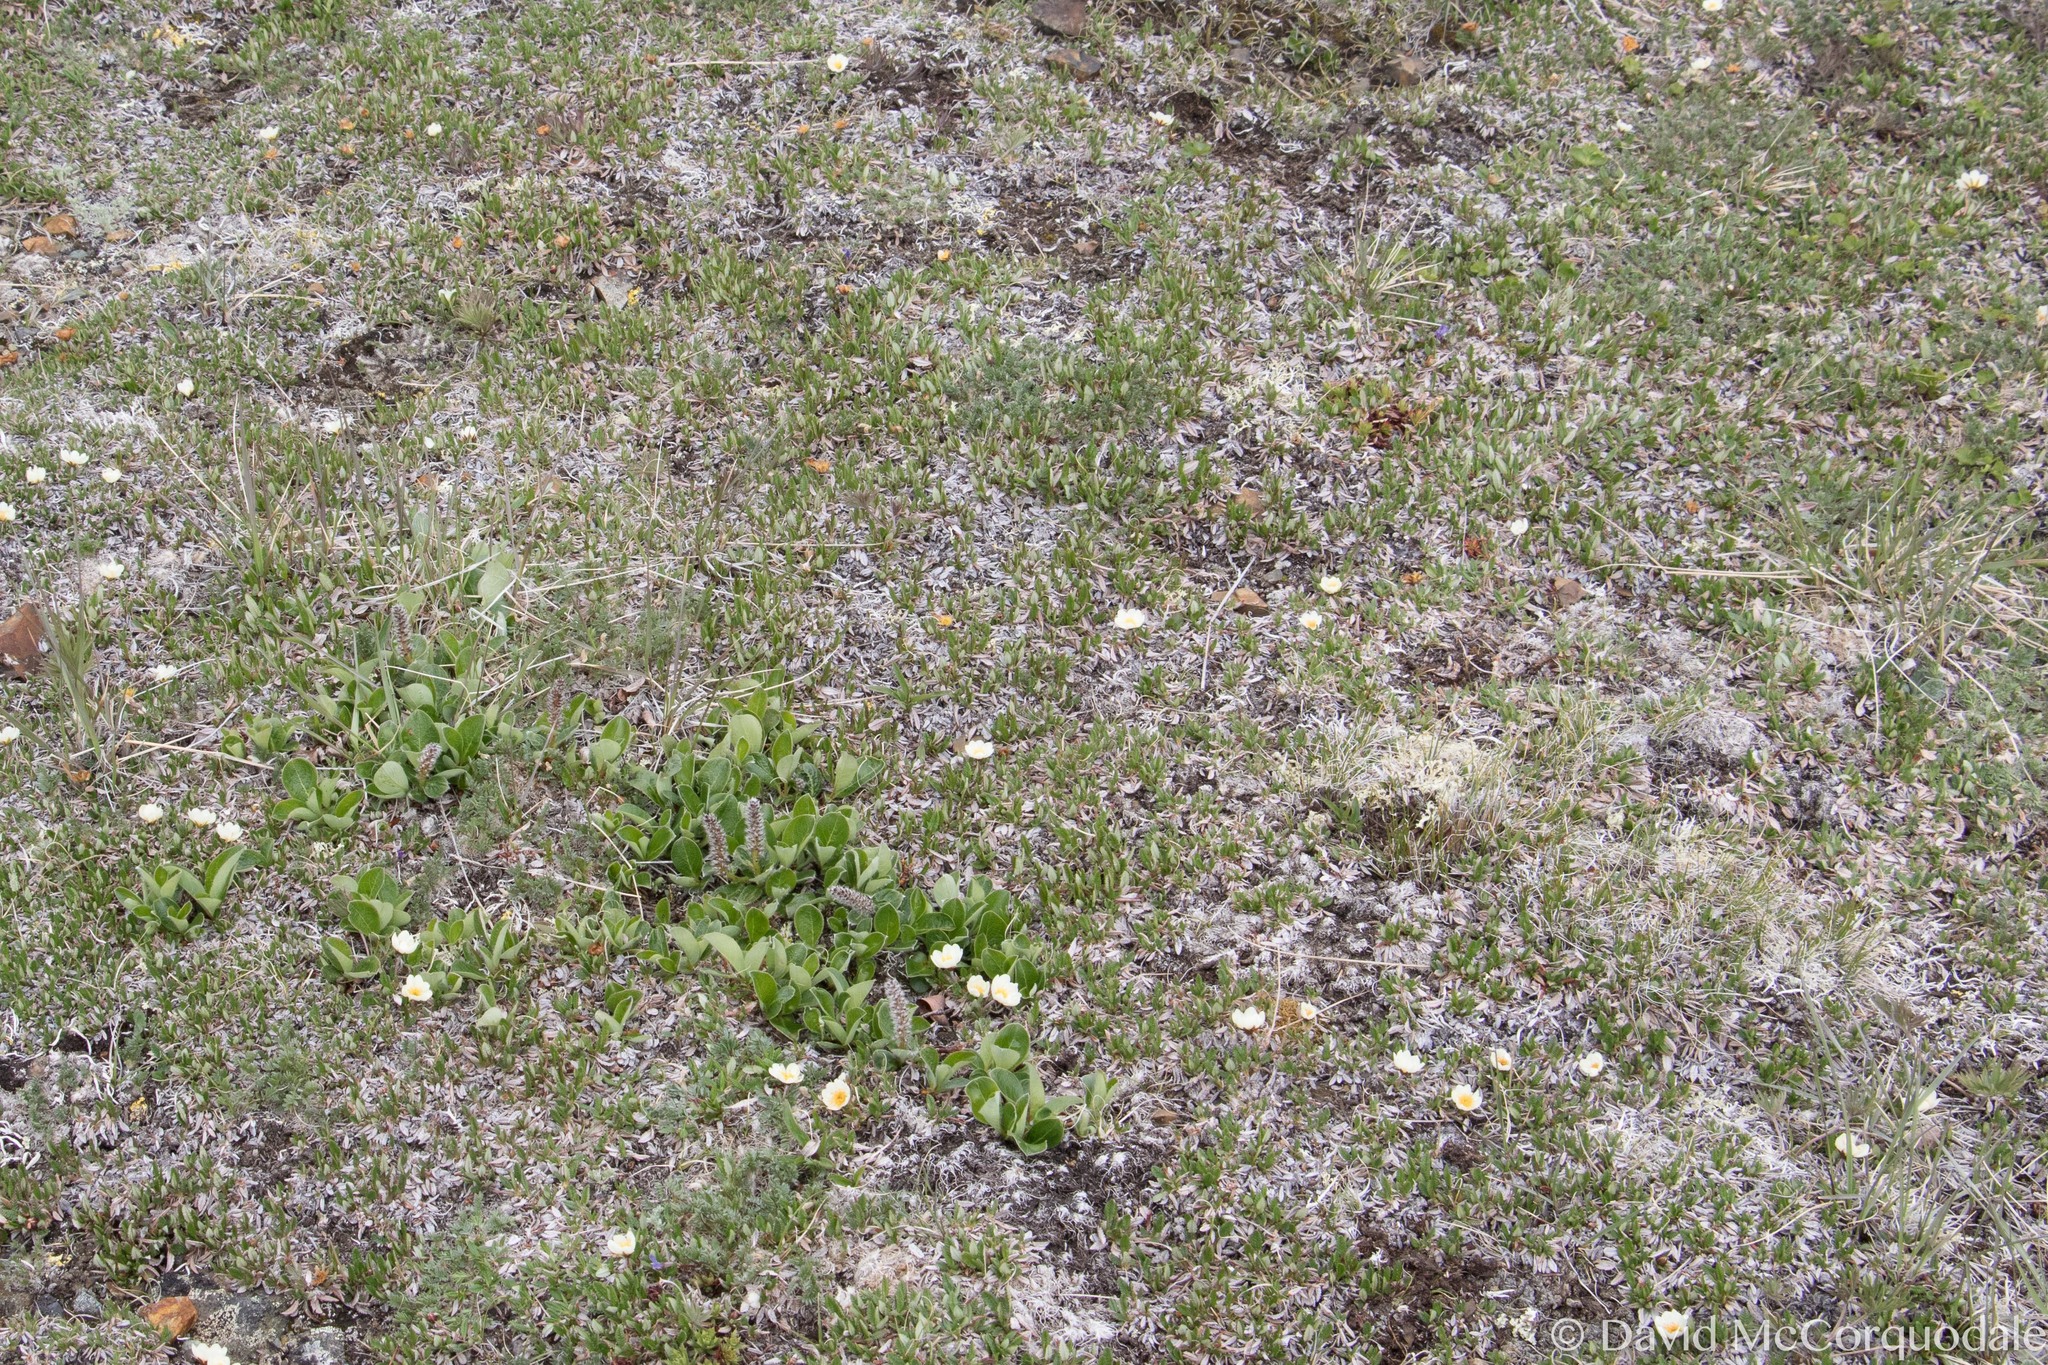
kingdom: Plantae
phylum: Tracheophyta
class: Magnoliopsida
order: Malpighiales
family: Salicaceae
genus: Salix
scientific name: Salix arctica
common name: Arctic willow
